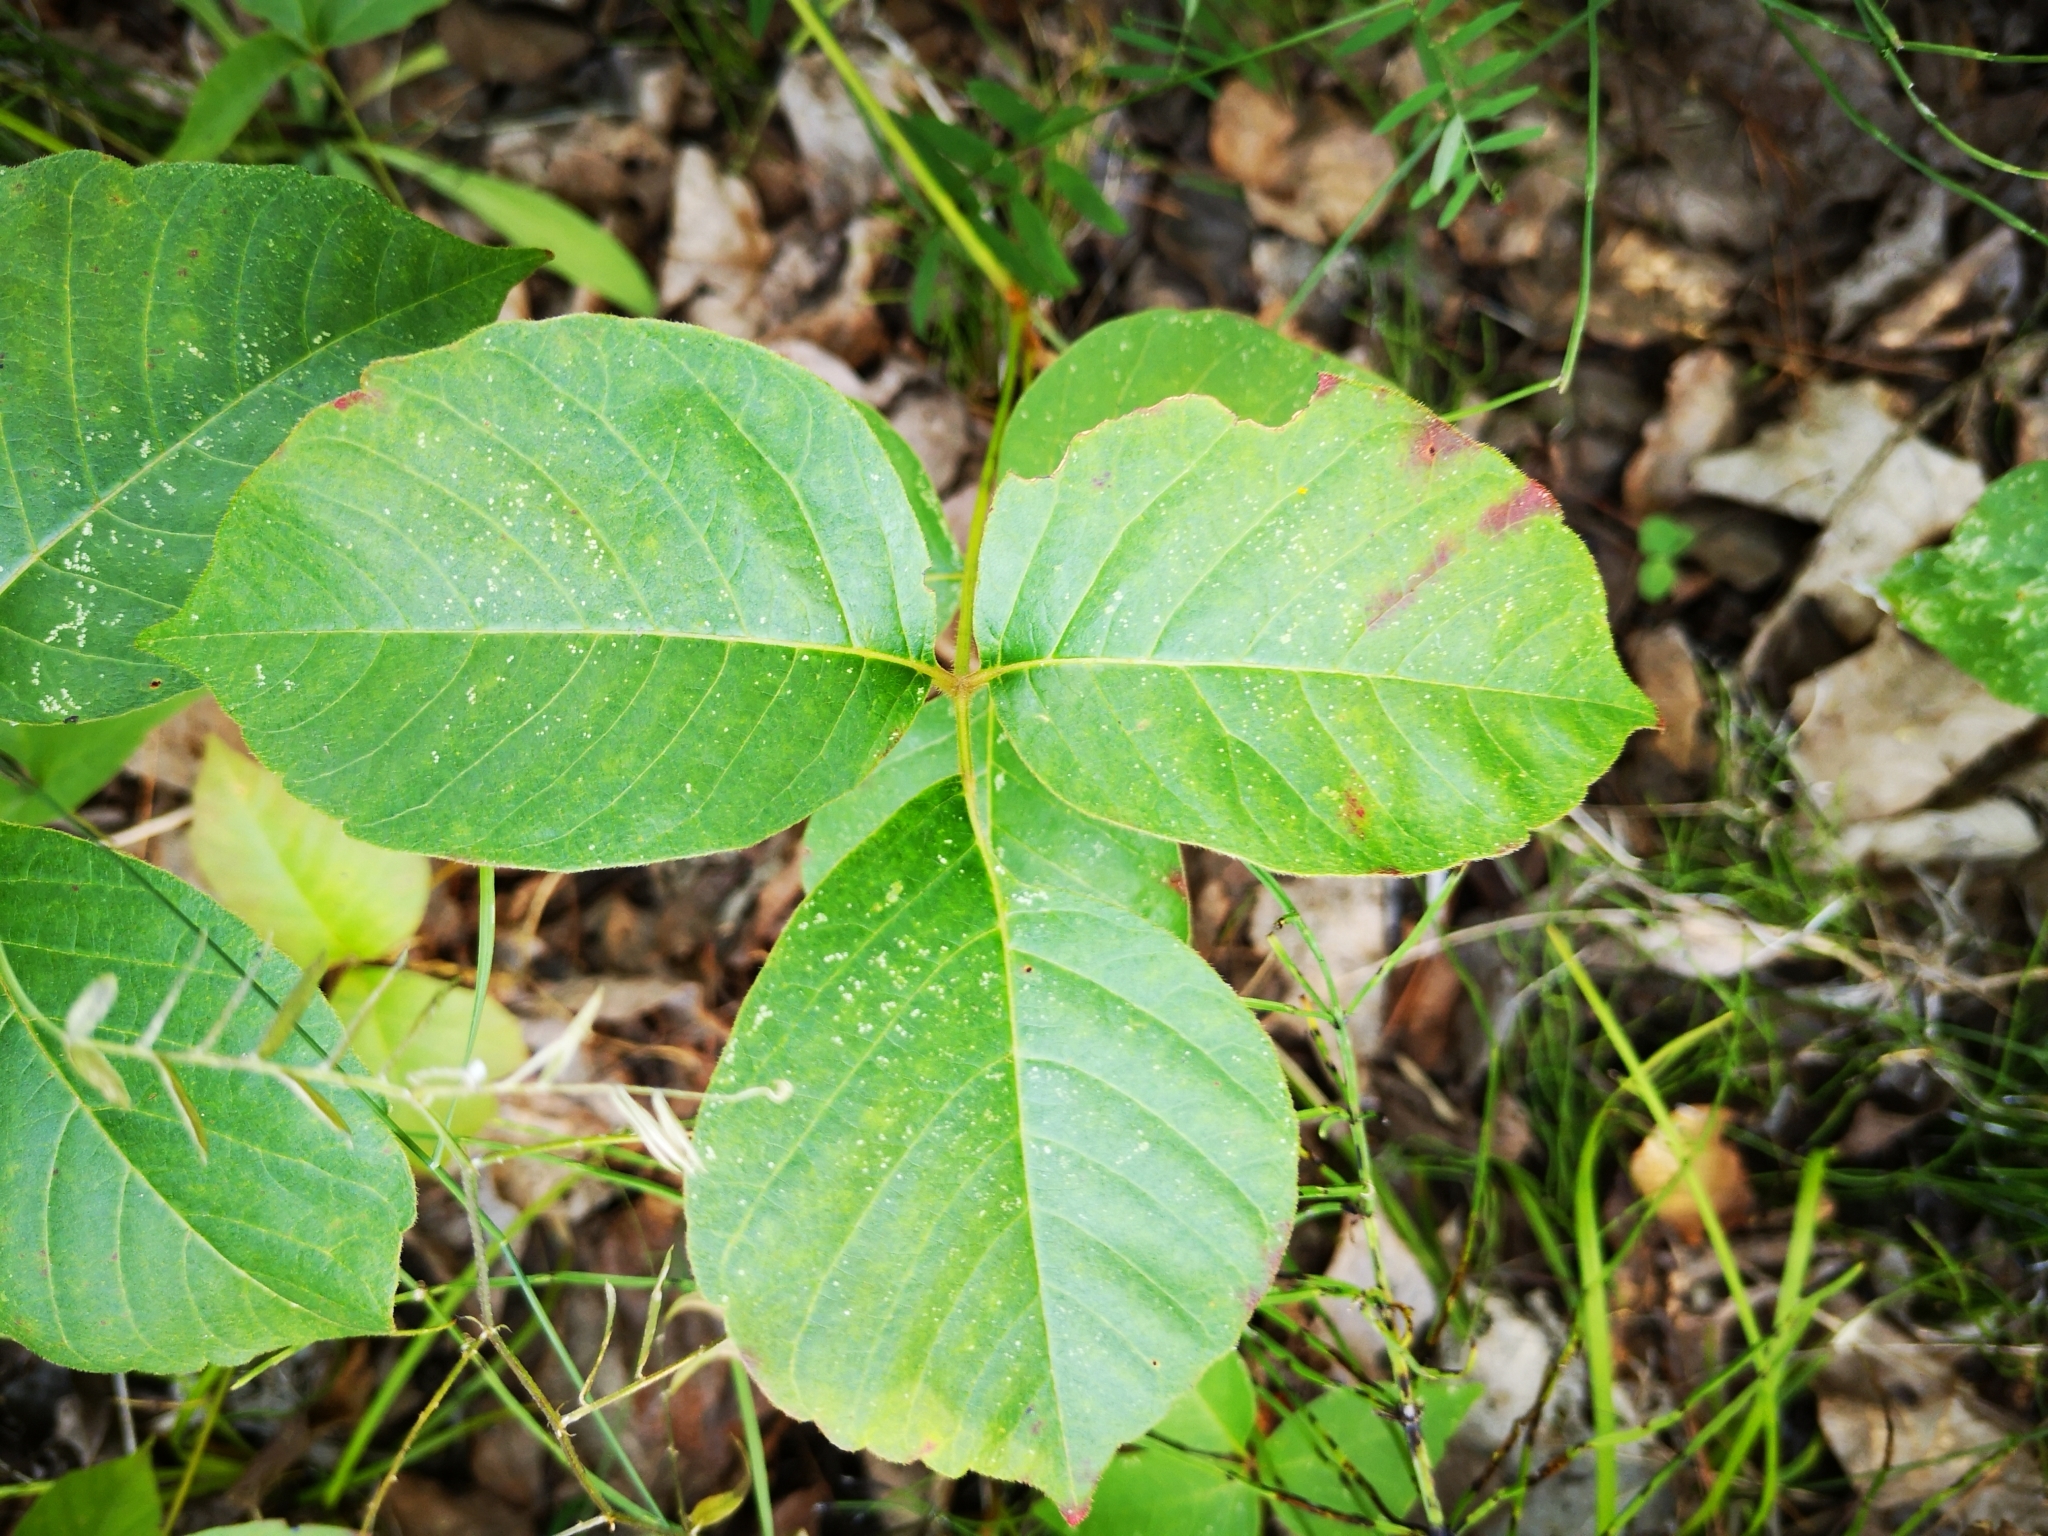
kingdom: Plantae
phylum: Tracheophyta
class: Magnoliopsida
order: Sapindales
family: Anacardiaceae
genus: Toxicodendron
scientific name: Toxicodendron rydbergii
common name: Rydberg's poison-ivy
